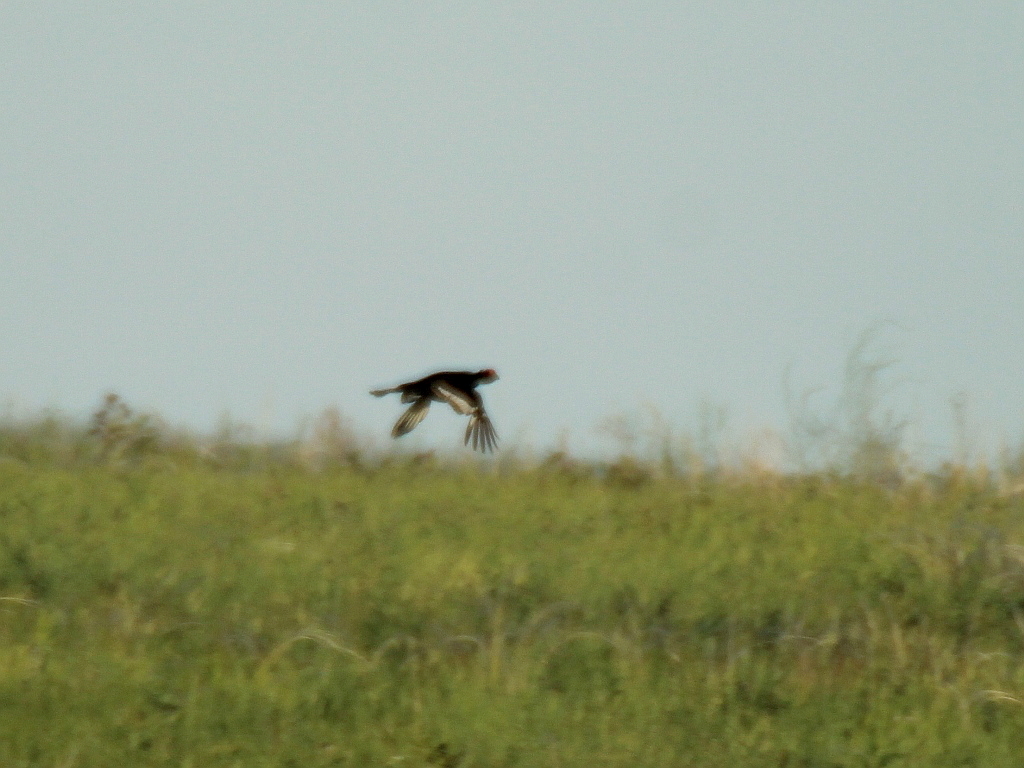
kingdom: Animalia
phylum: Chordata
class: Aves
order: Galliformes
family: Phasianidae
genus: Lyrurus
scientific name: Lyrurus tetrix
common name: Black grouse
